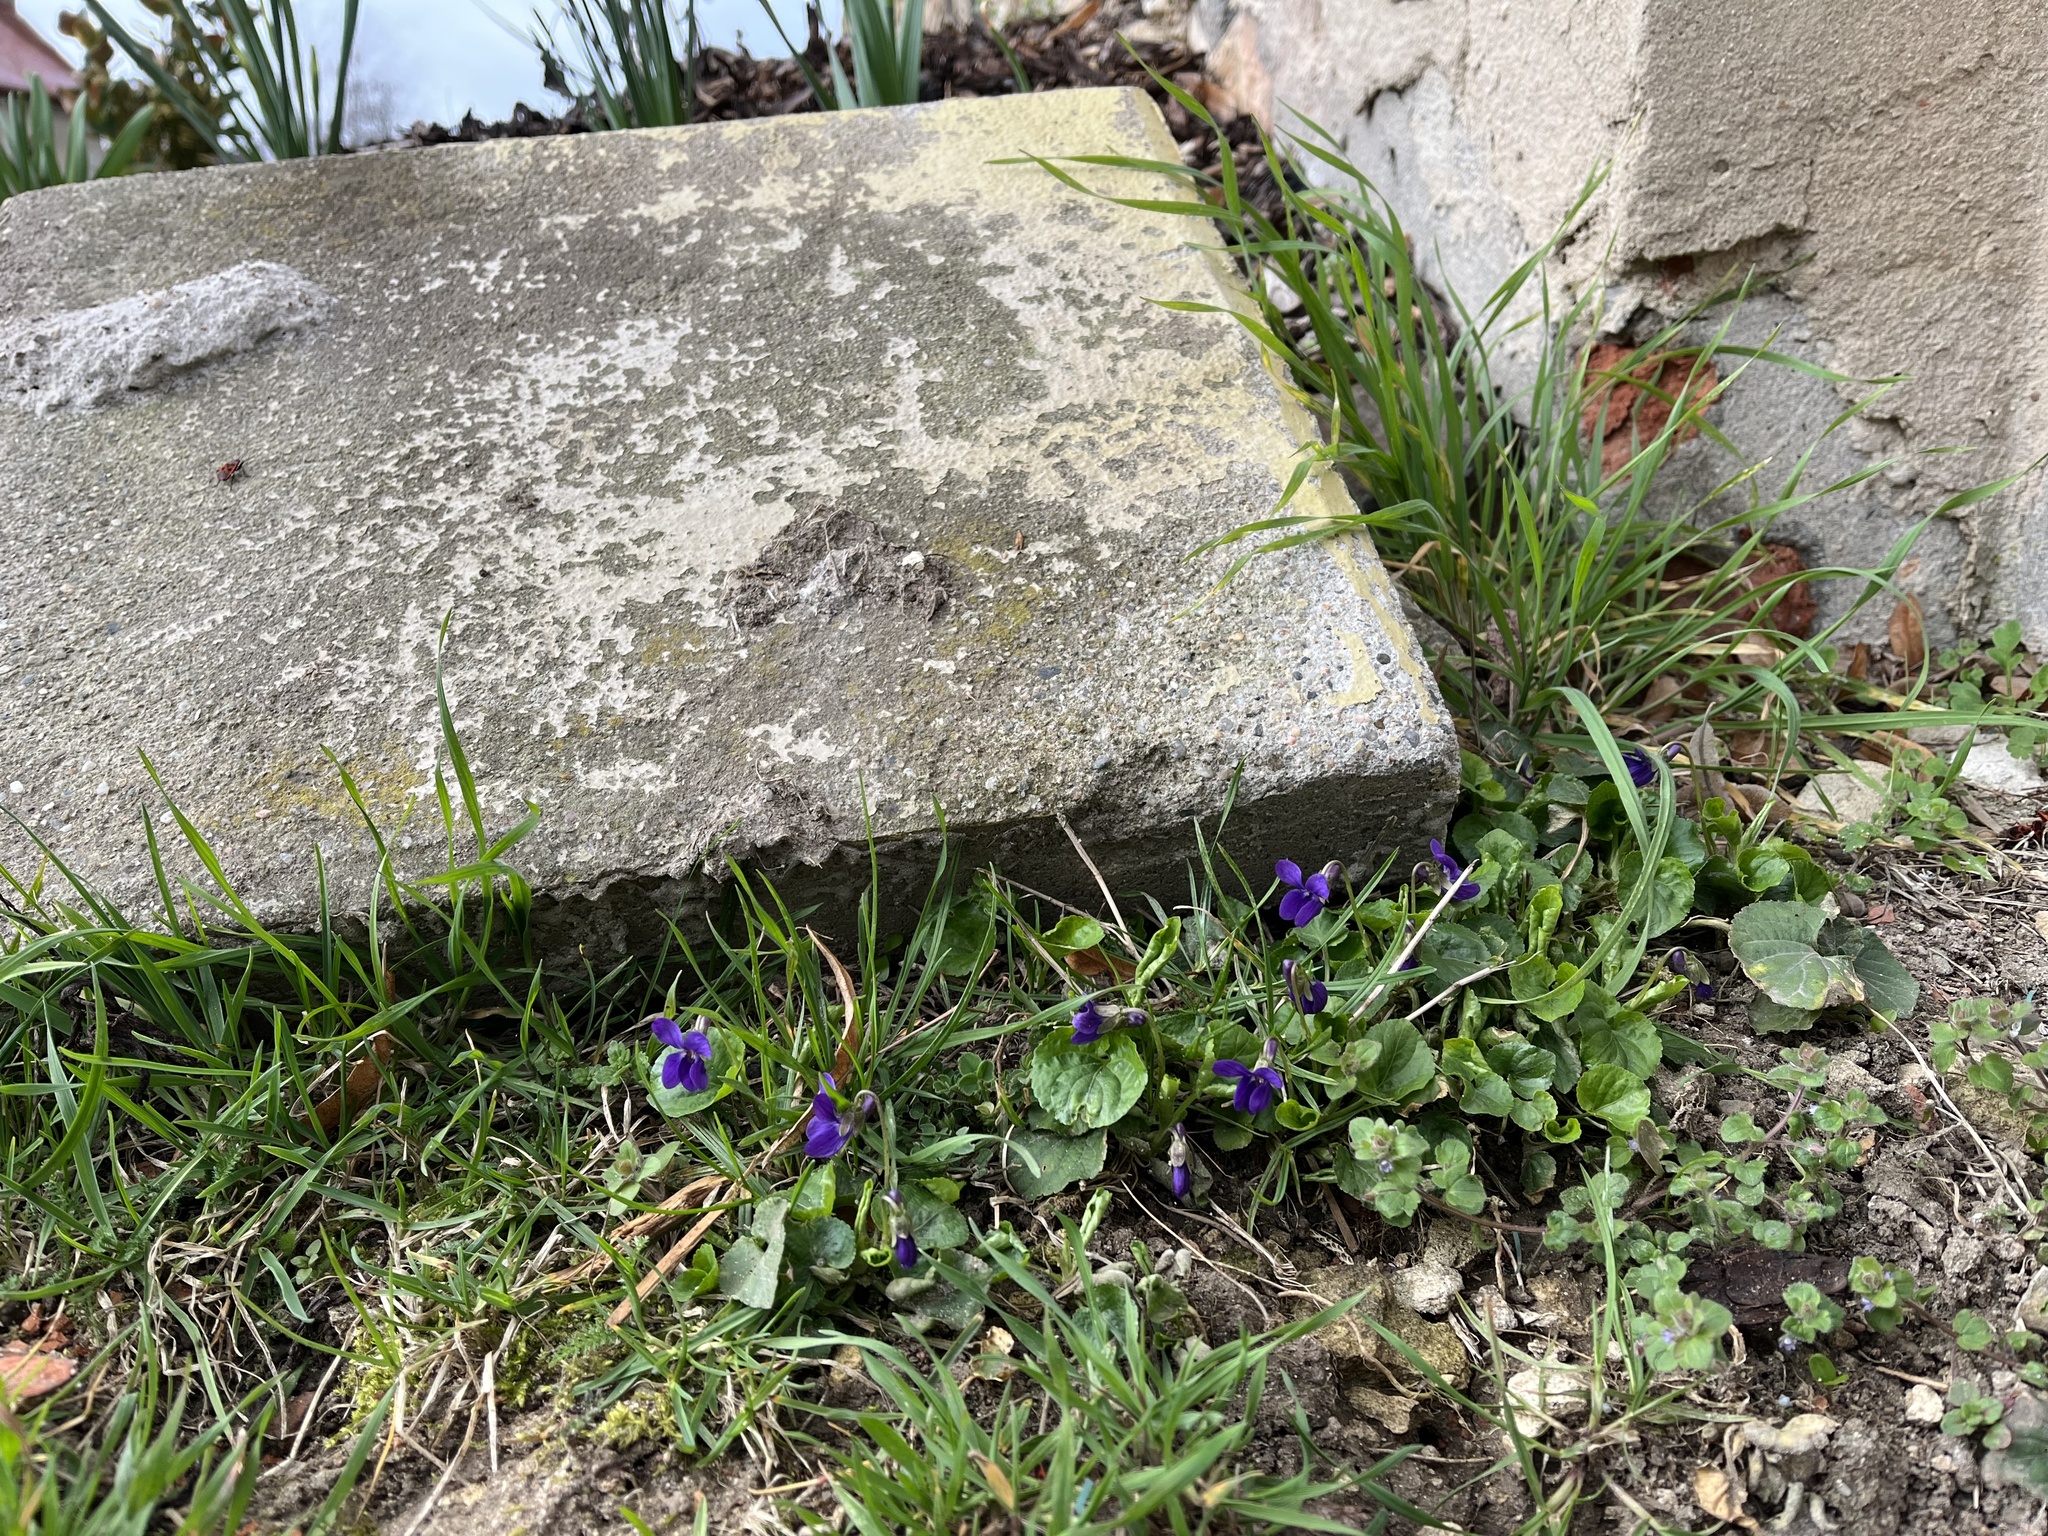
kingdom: Plantae
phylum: Tracheophyta
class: Magnoliopsida
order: Malpighiales
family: Violaceae
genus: Viola
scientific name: Viola odorata
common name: Sweet violet
